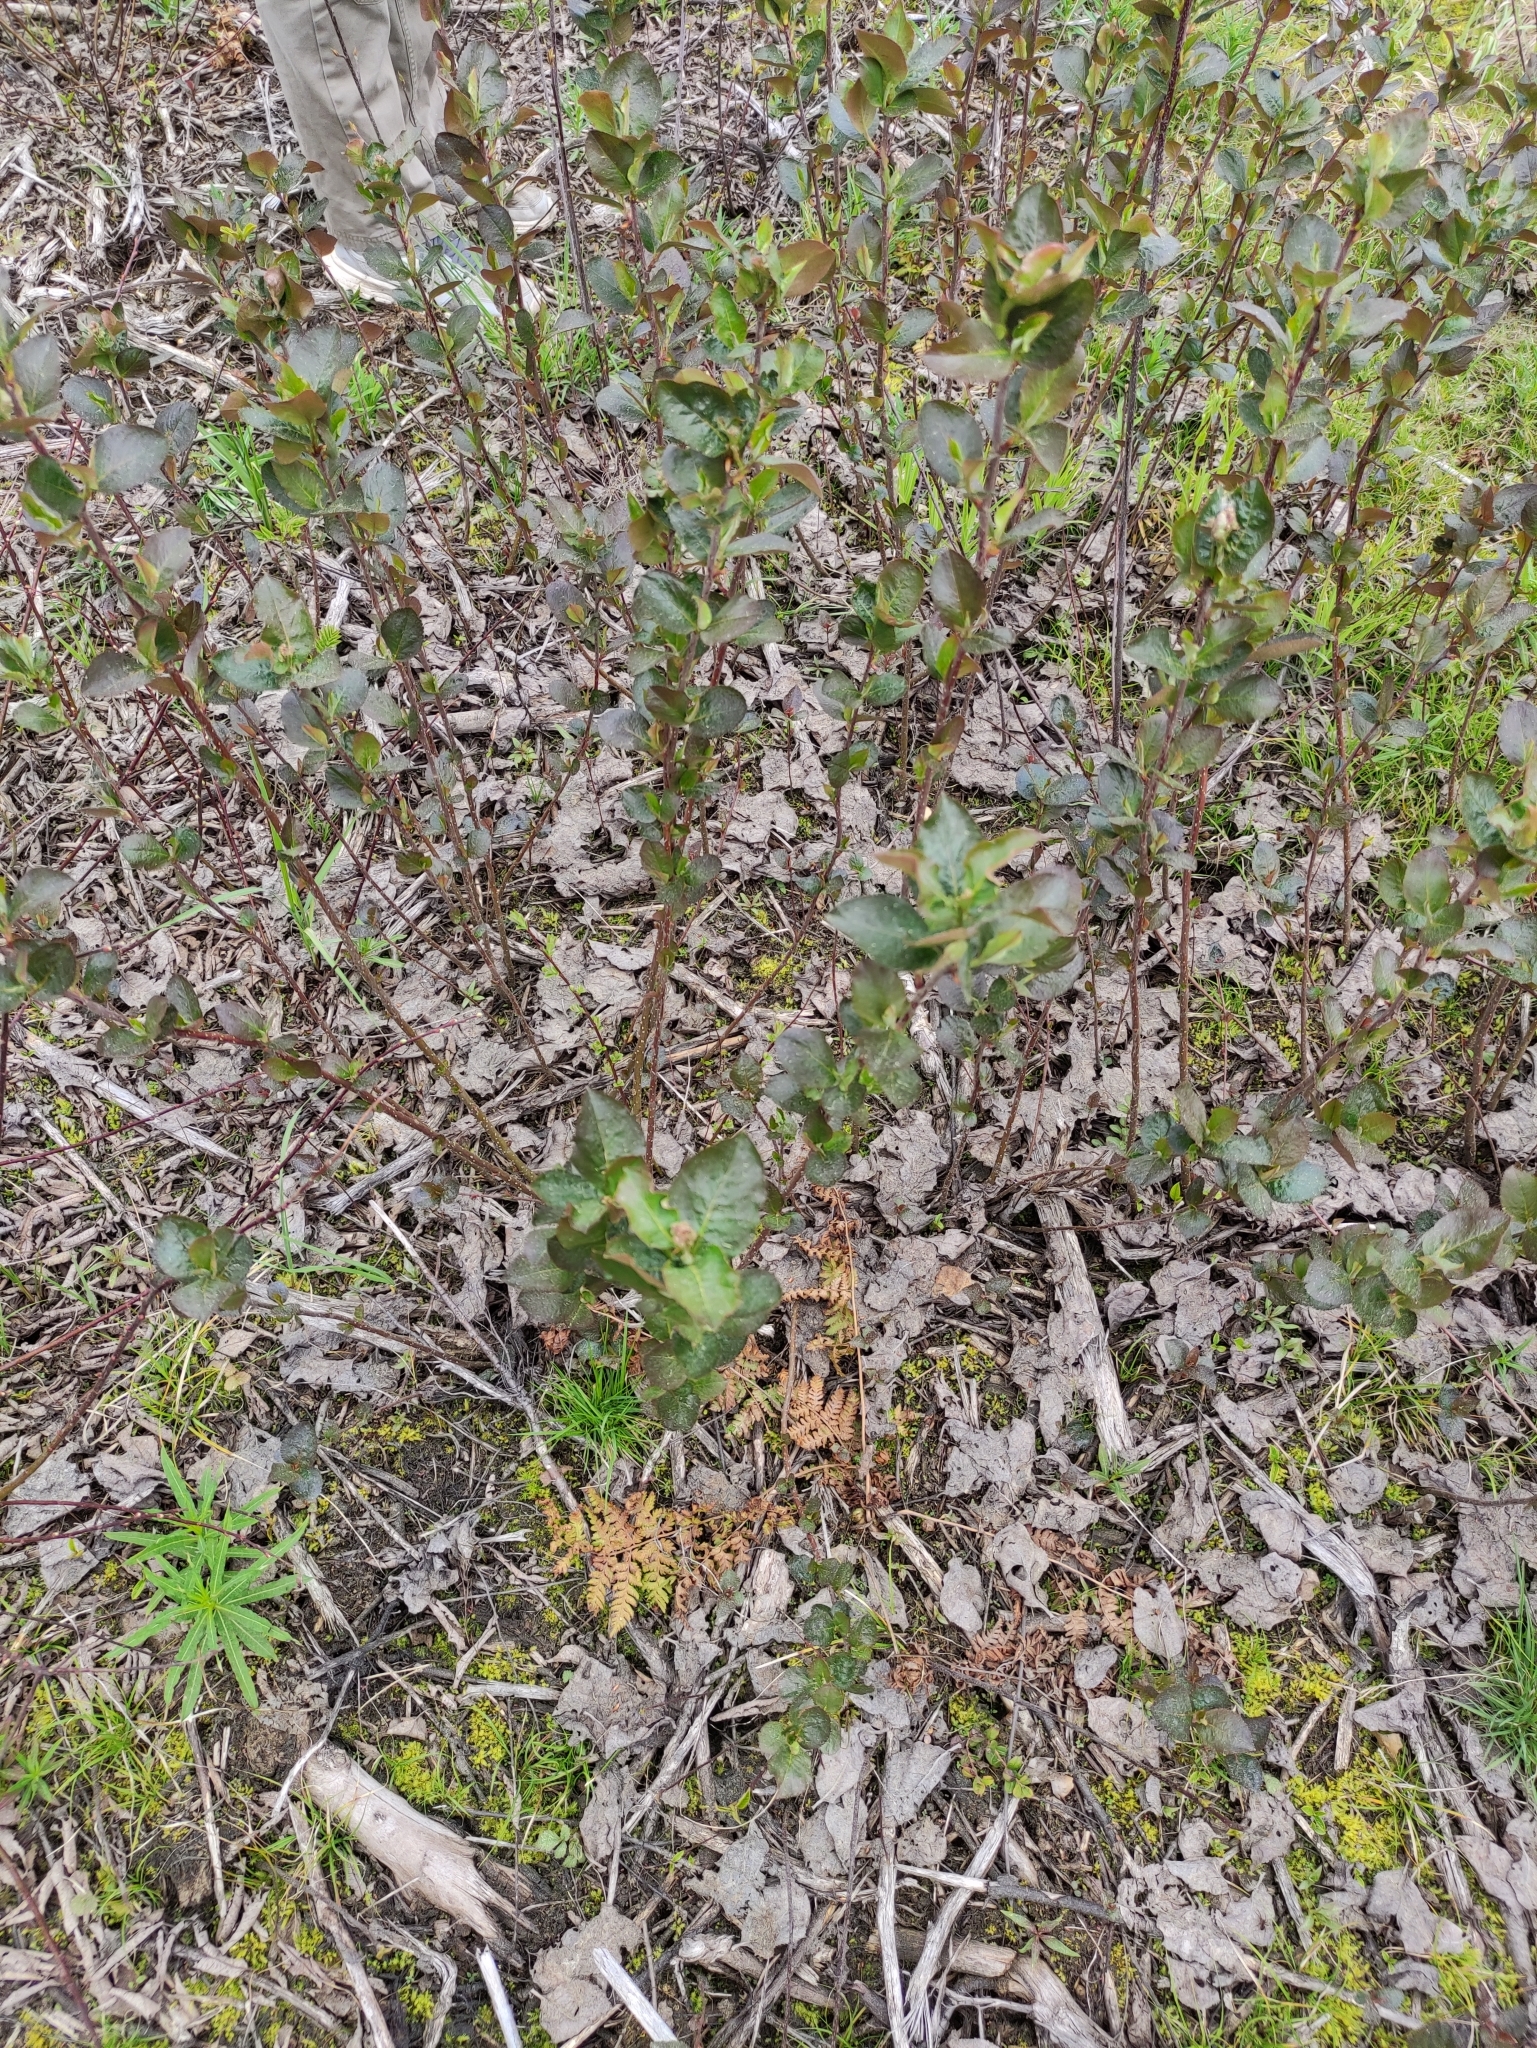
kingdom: Plantae
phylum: Tracheophyta
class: Magnoliopsida
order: Rosales
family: Rosaceae
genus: Sorbaronia
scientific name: Sorbaronia arsenii
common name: Arsène's mountain-ash
